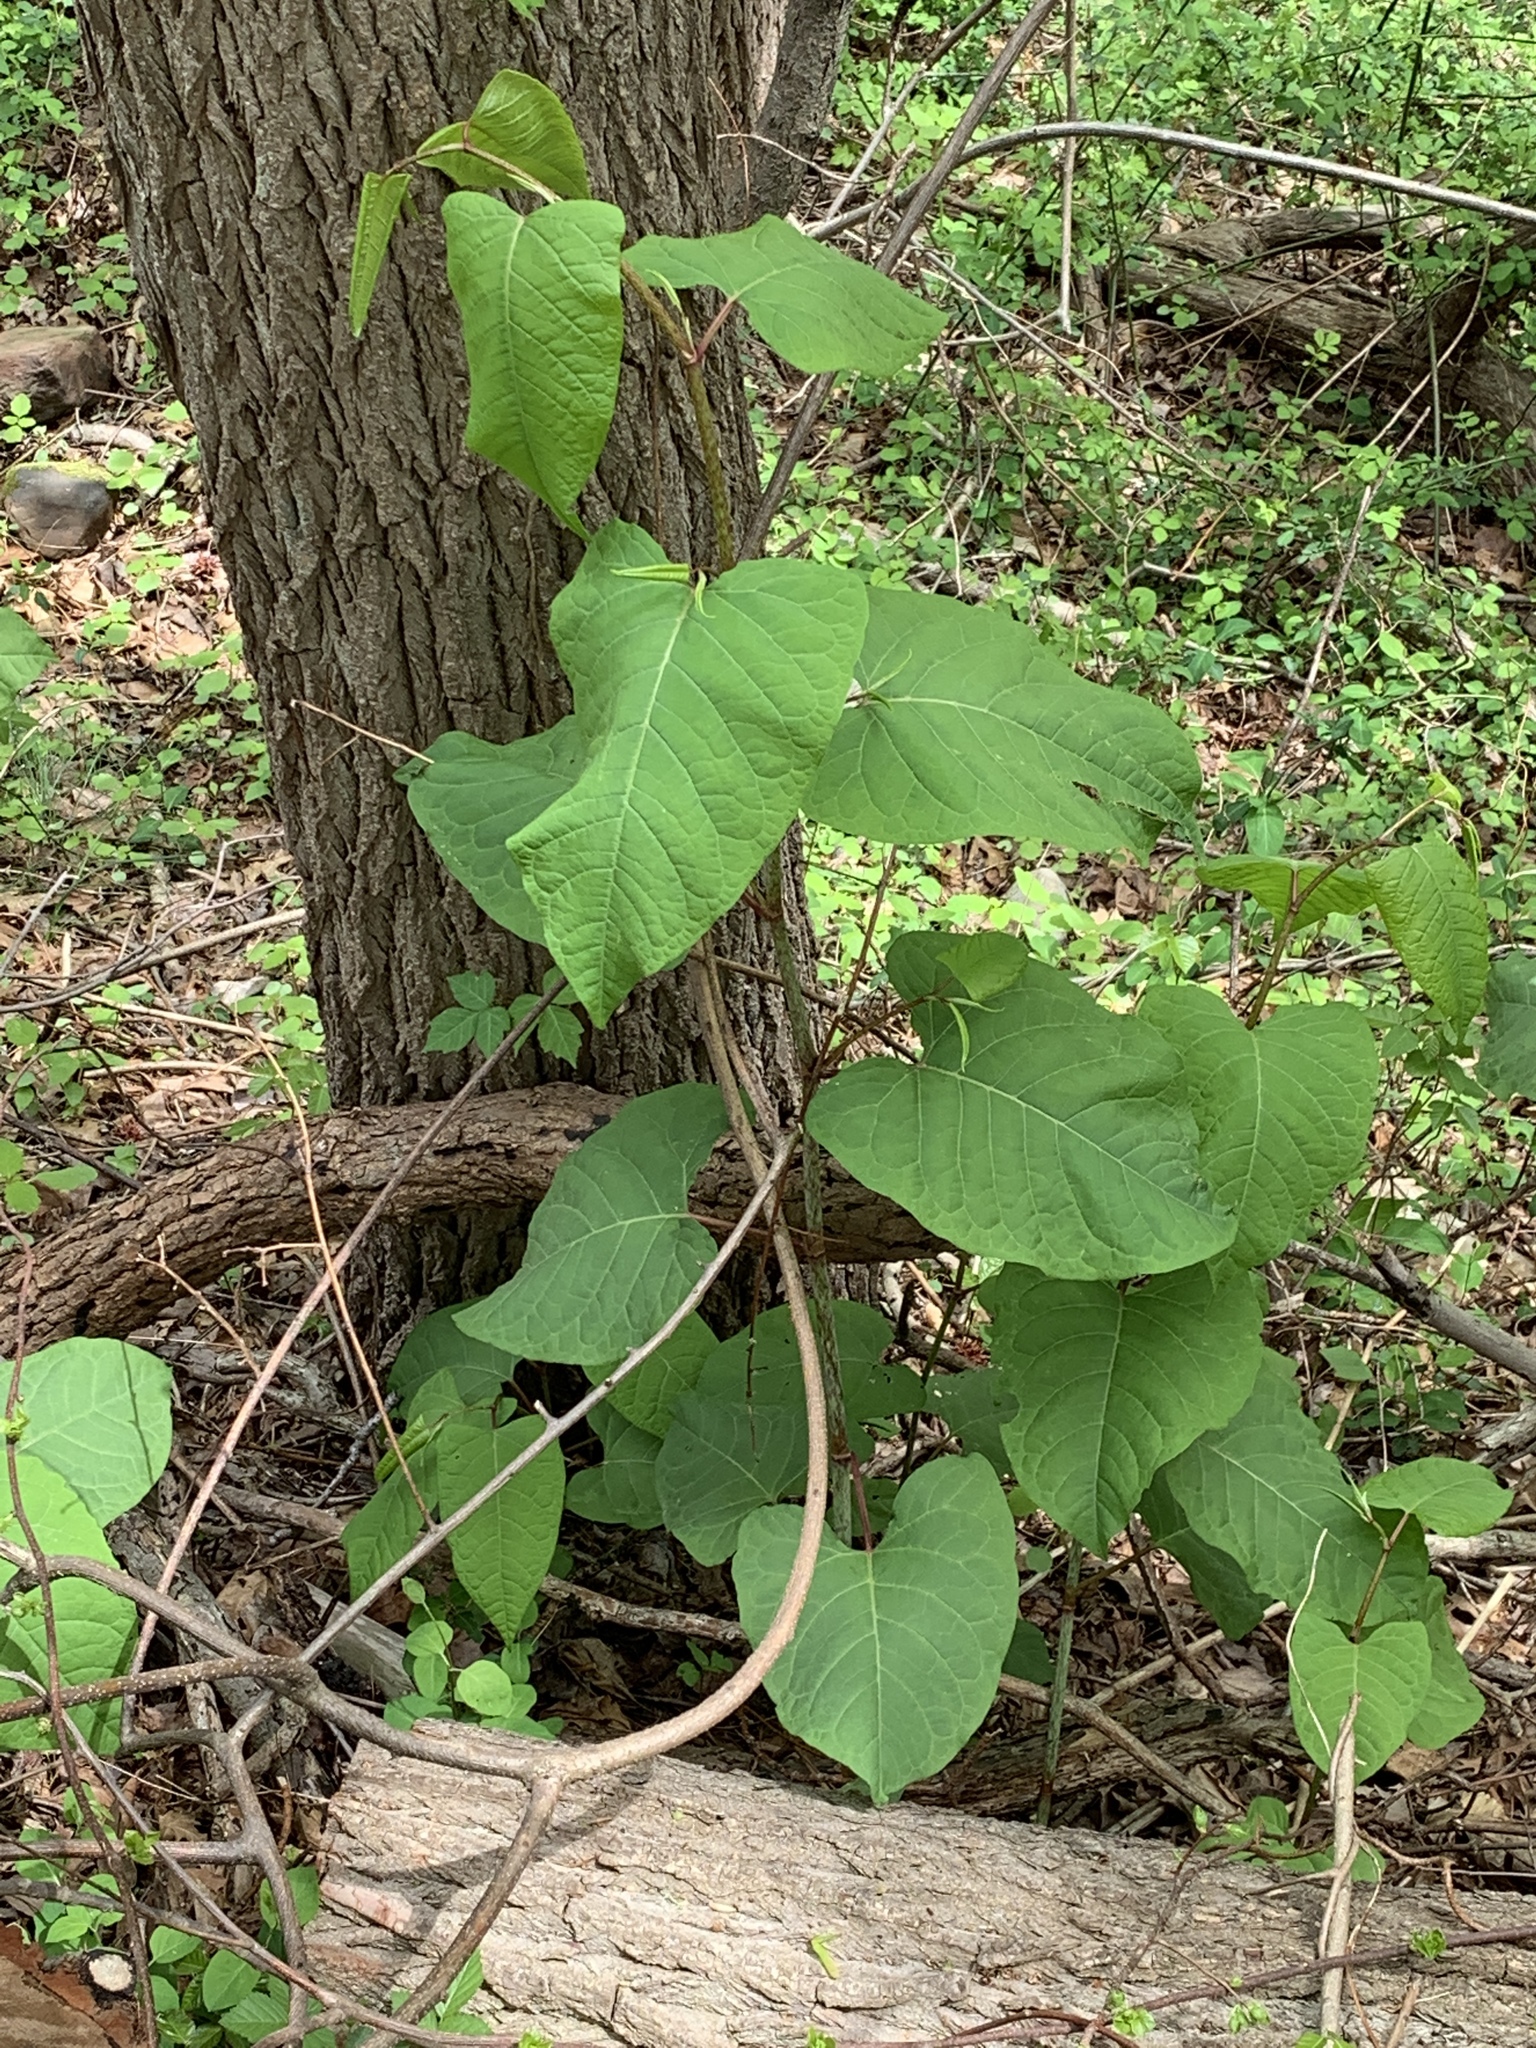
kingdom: Plantae
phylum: Tracheophyta
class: Magnoliopsida
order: Caryophyllales
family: Polygonaceae
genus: Reynoutria
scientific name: Reynoutria sachalinensis
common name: Giant knotweed
